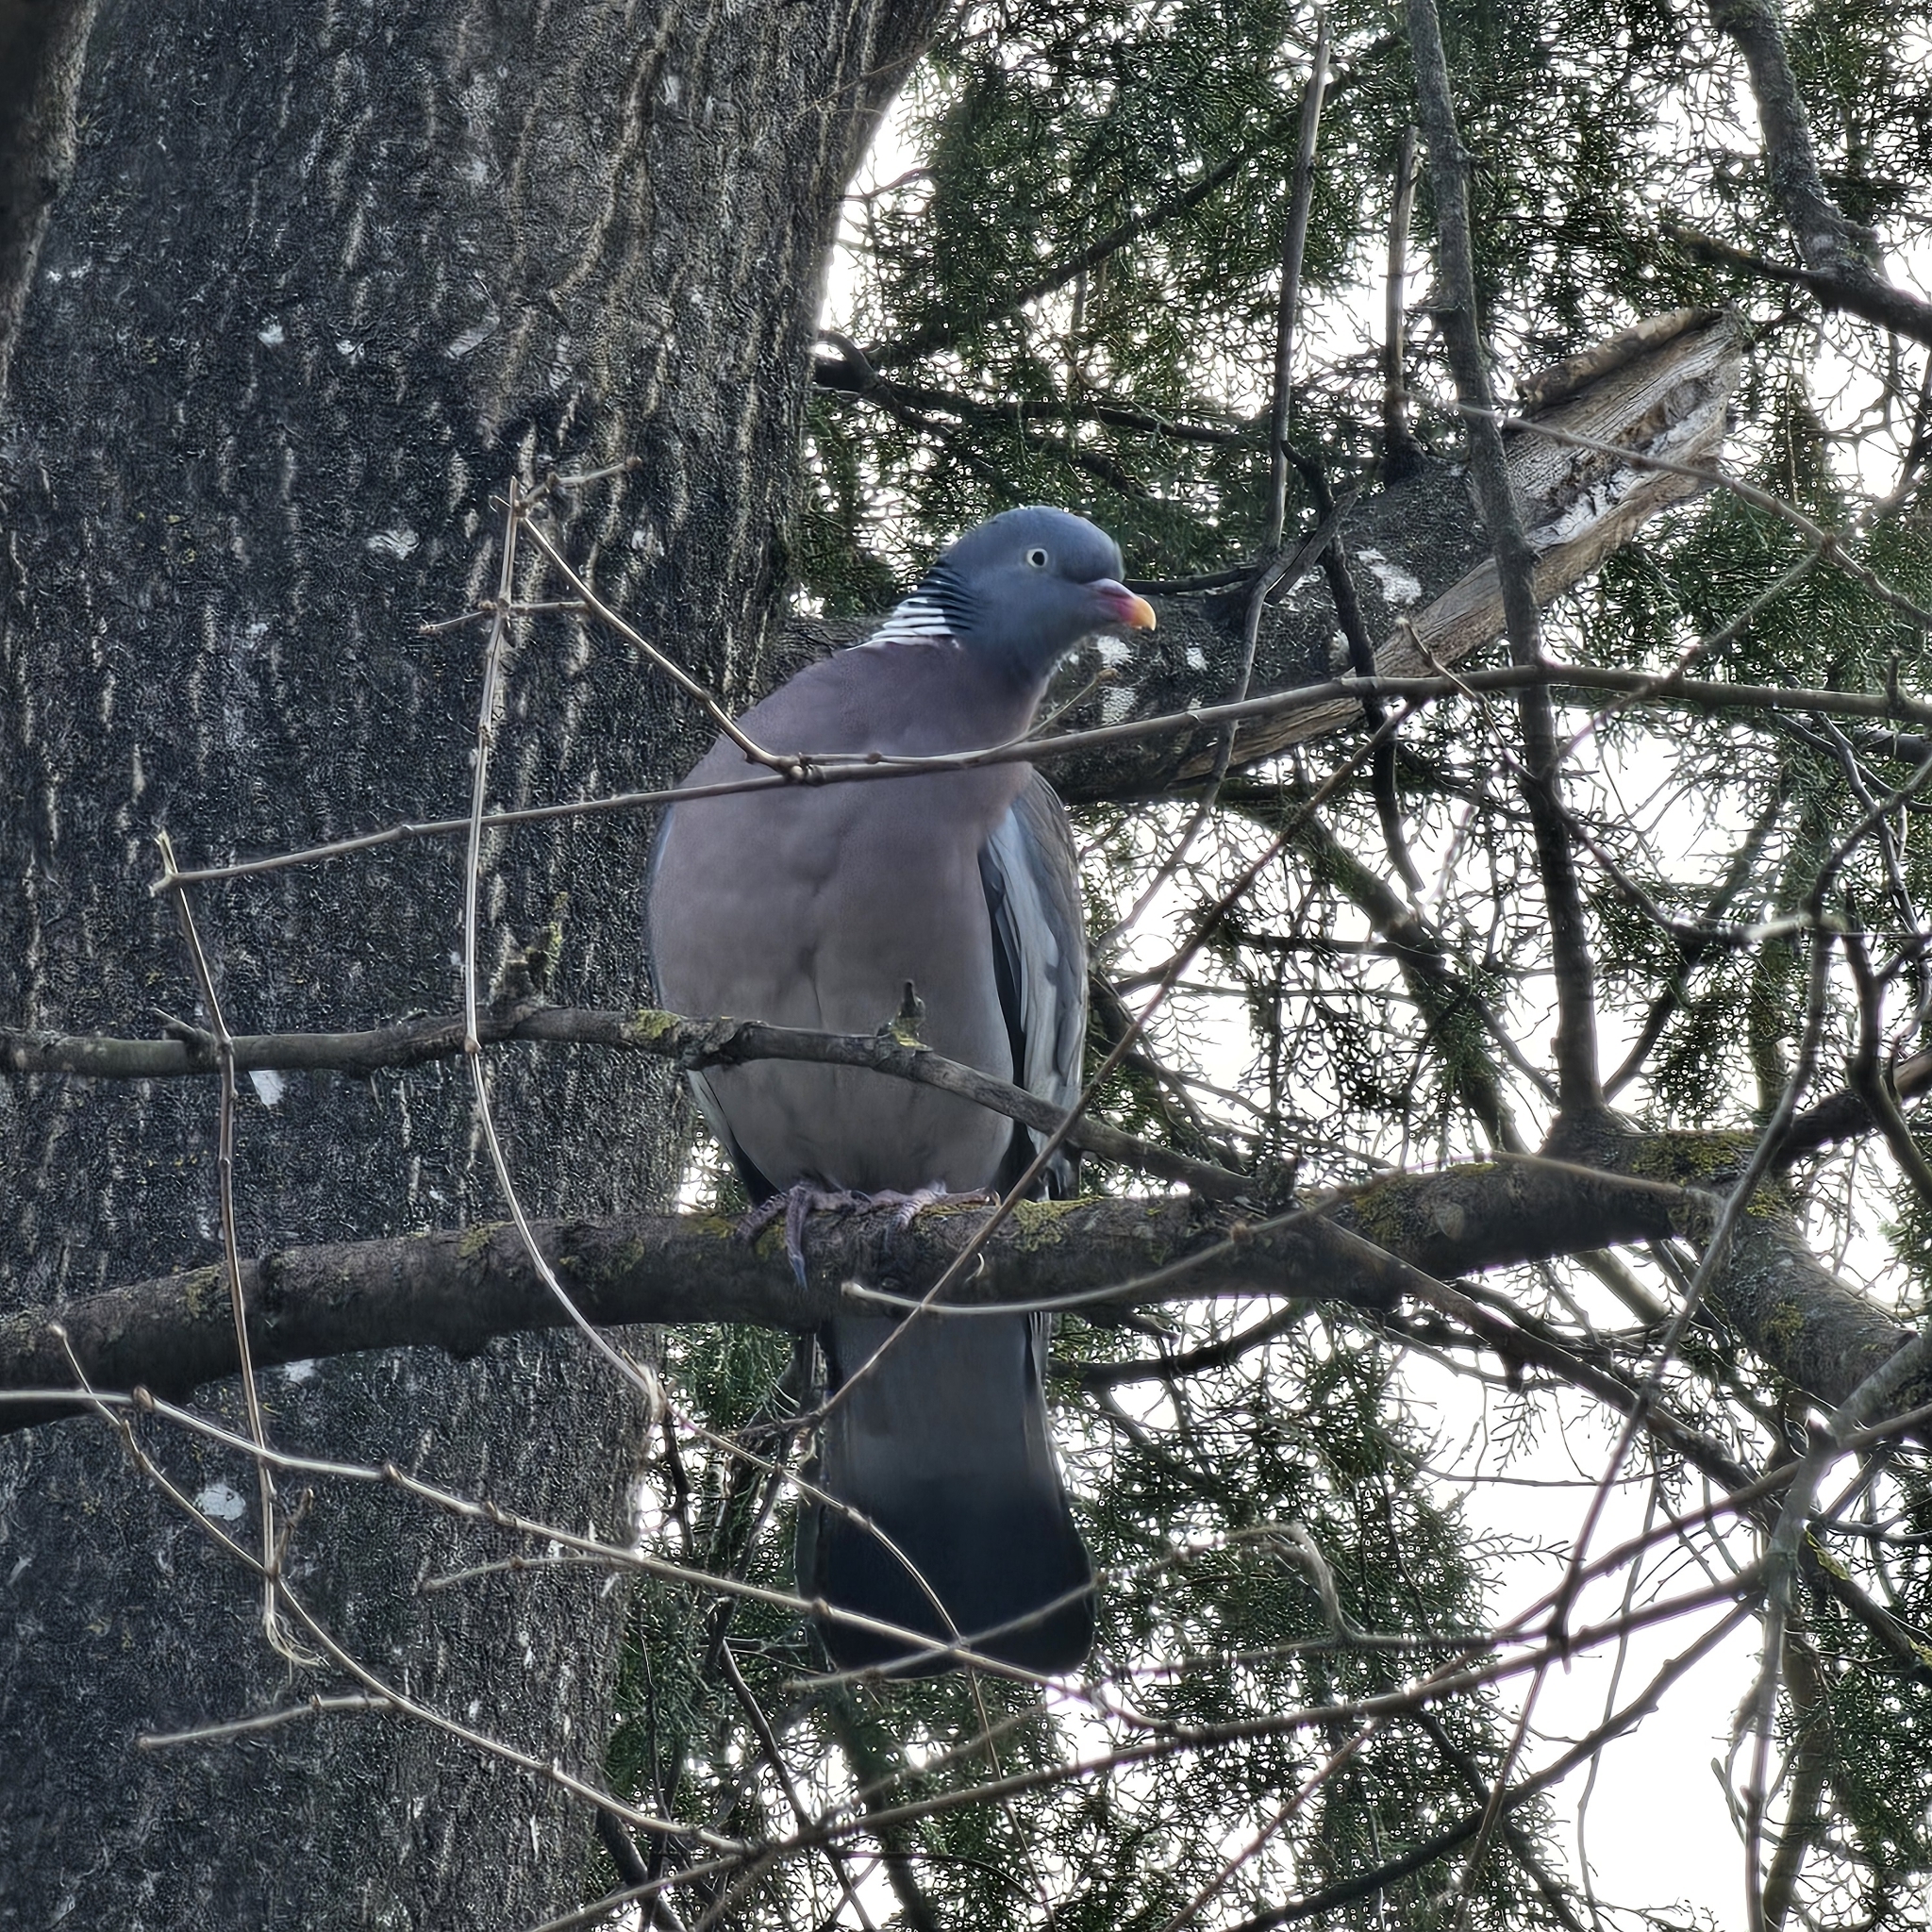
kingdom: Animalia
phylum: Chordata
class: Aves
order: Columbiformes
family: Columbidae
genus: Columba
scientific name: Columba palumbus
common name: Common wood pigeon
